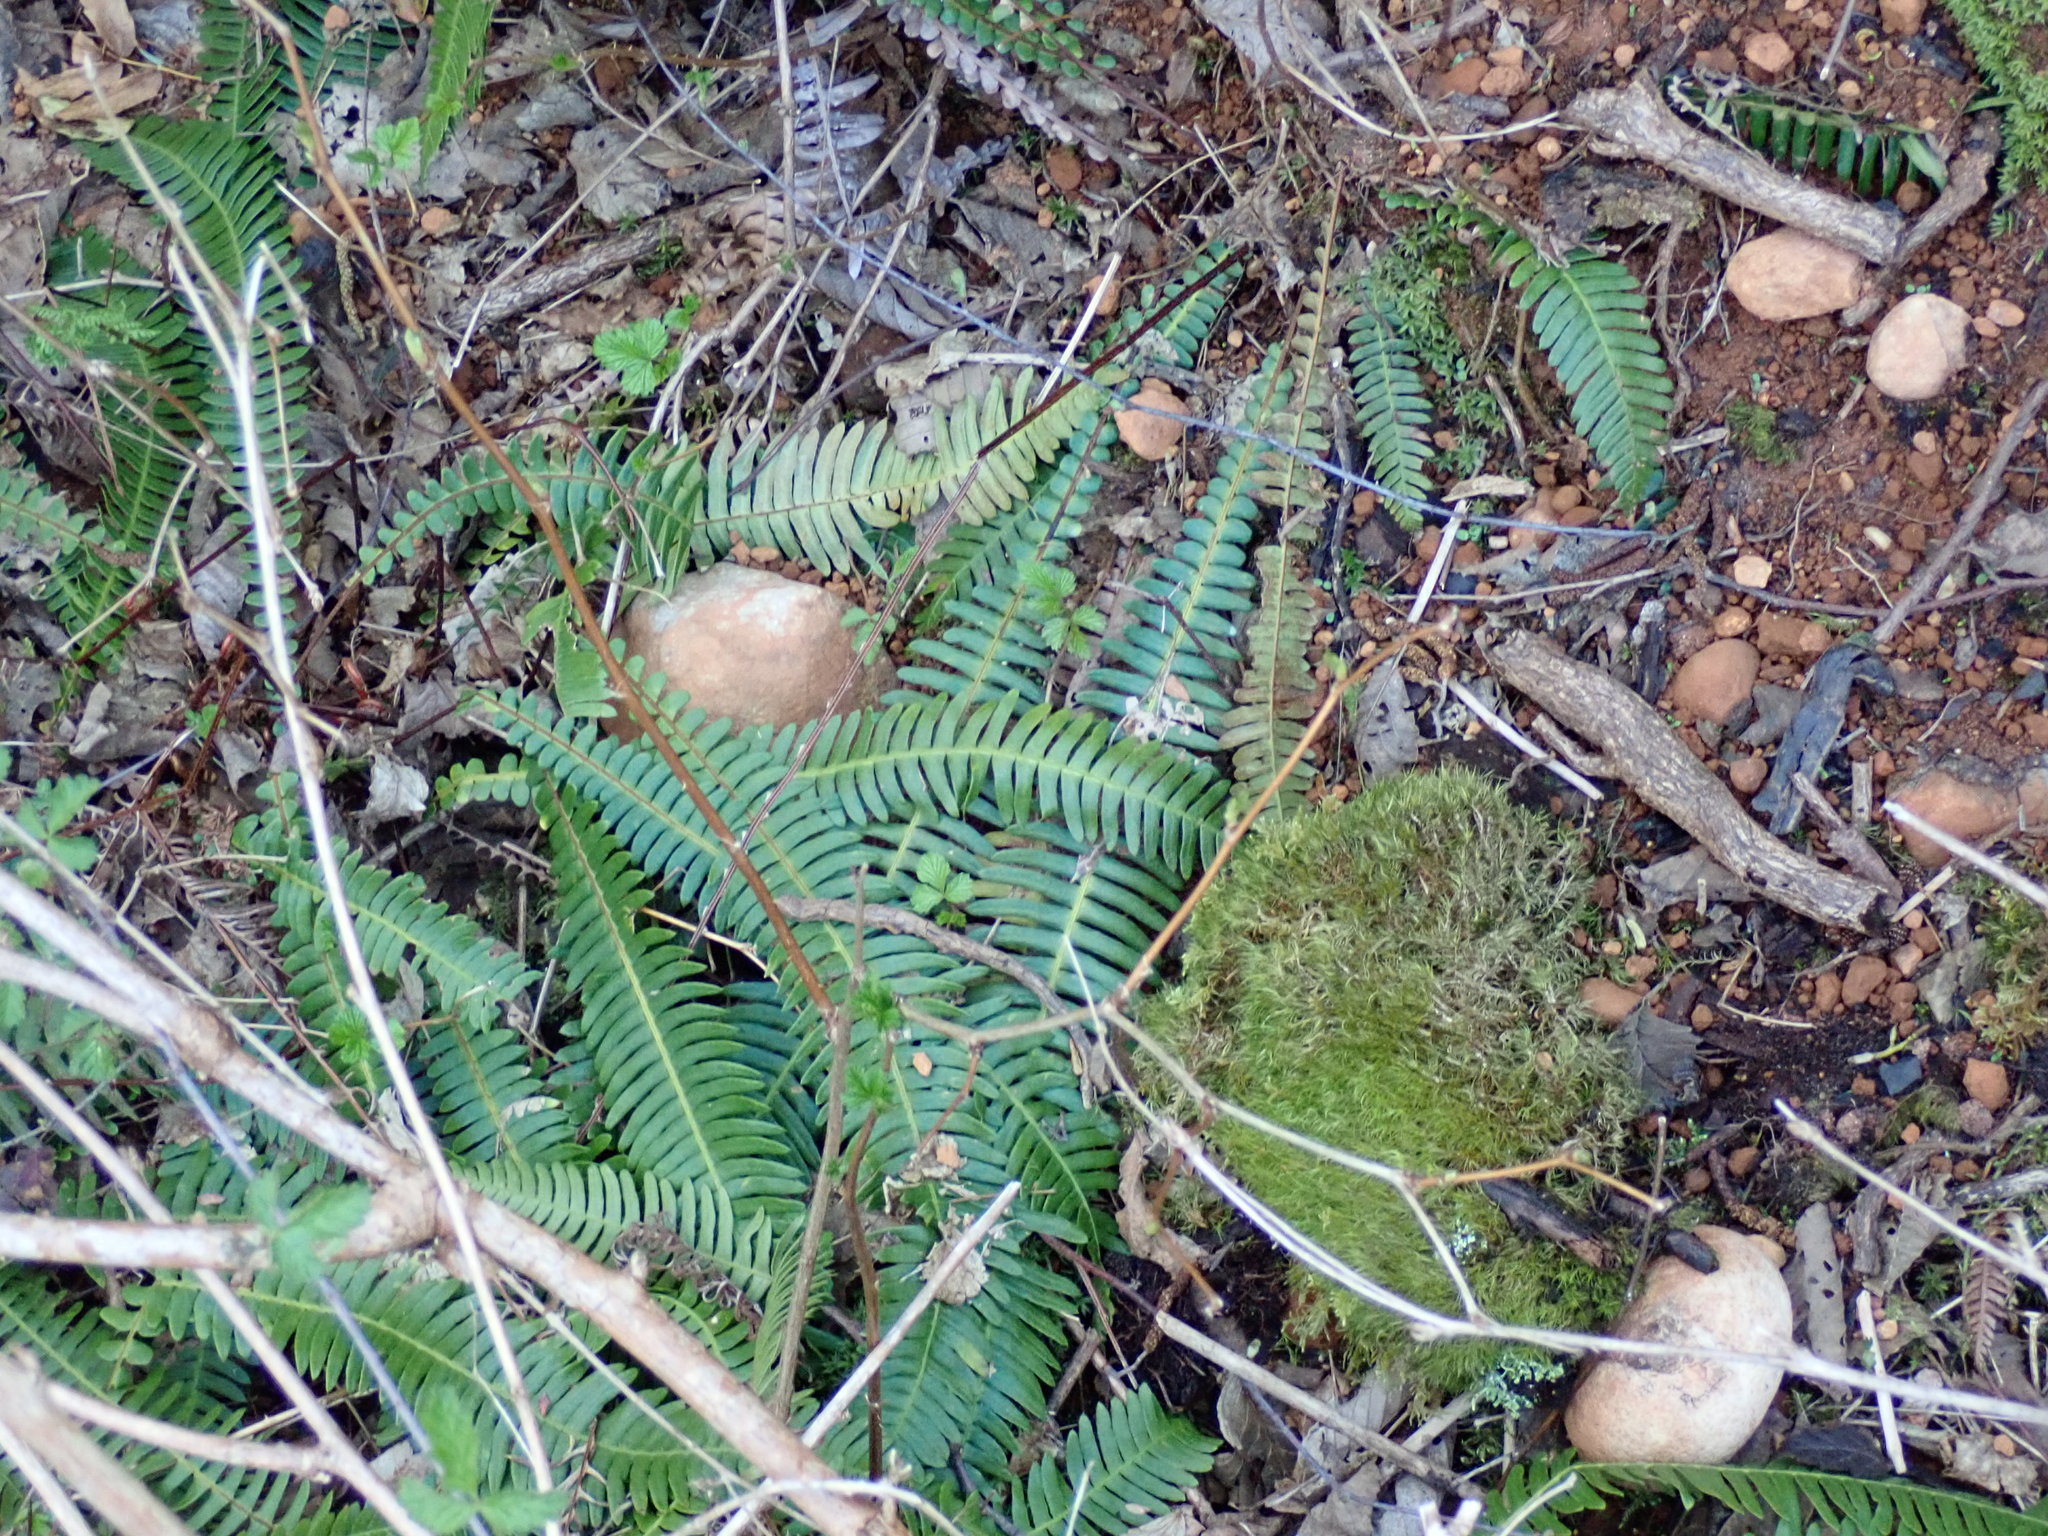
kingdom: Plantae
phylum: Tracheophyta
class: Polypodiopsida
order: Polypodiales
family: Blechnaceae
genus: Struthiopteris
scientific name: Struthiopteris spicant
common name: Deer fern
